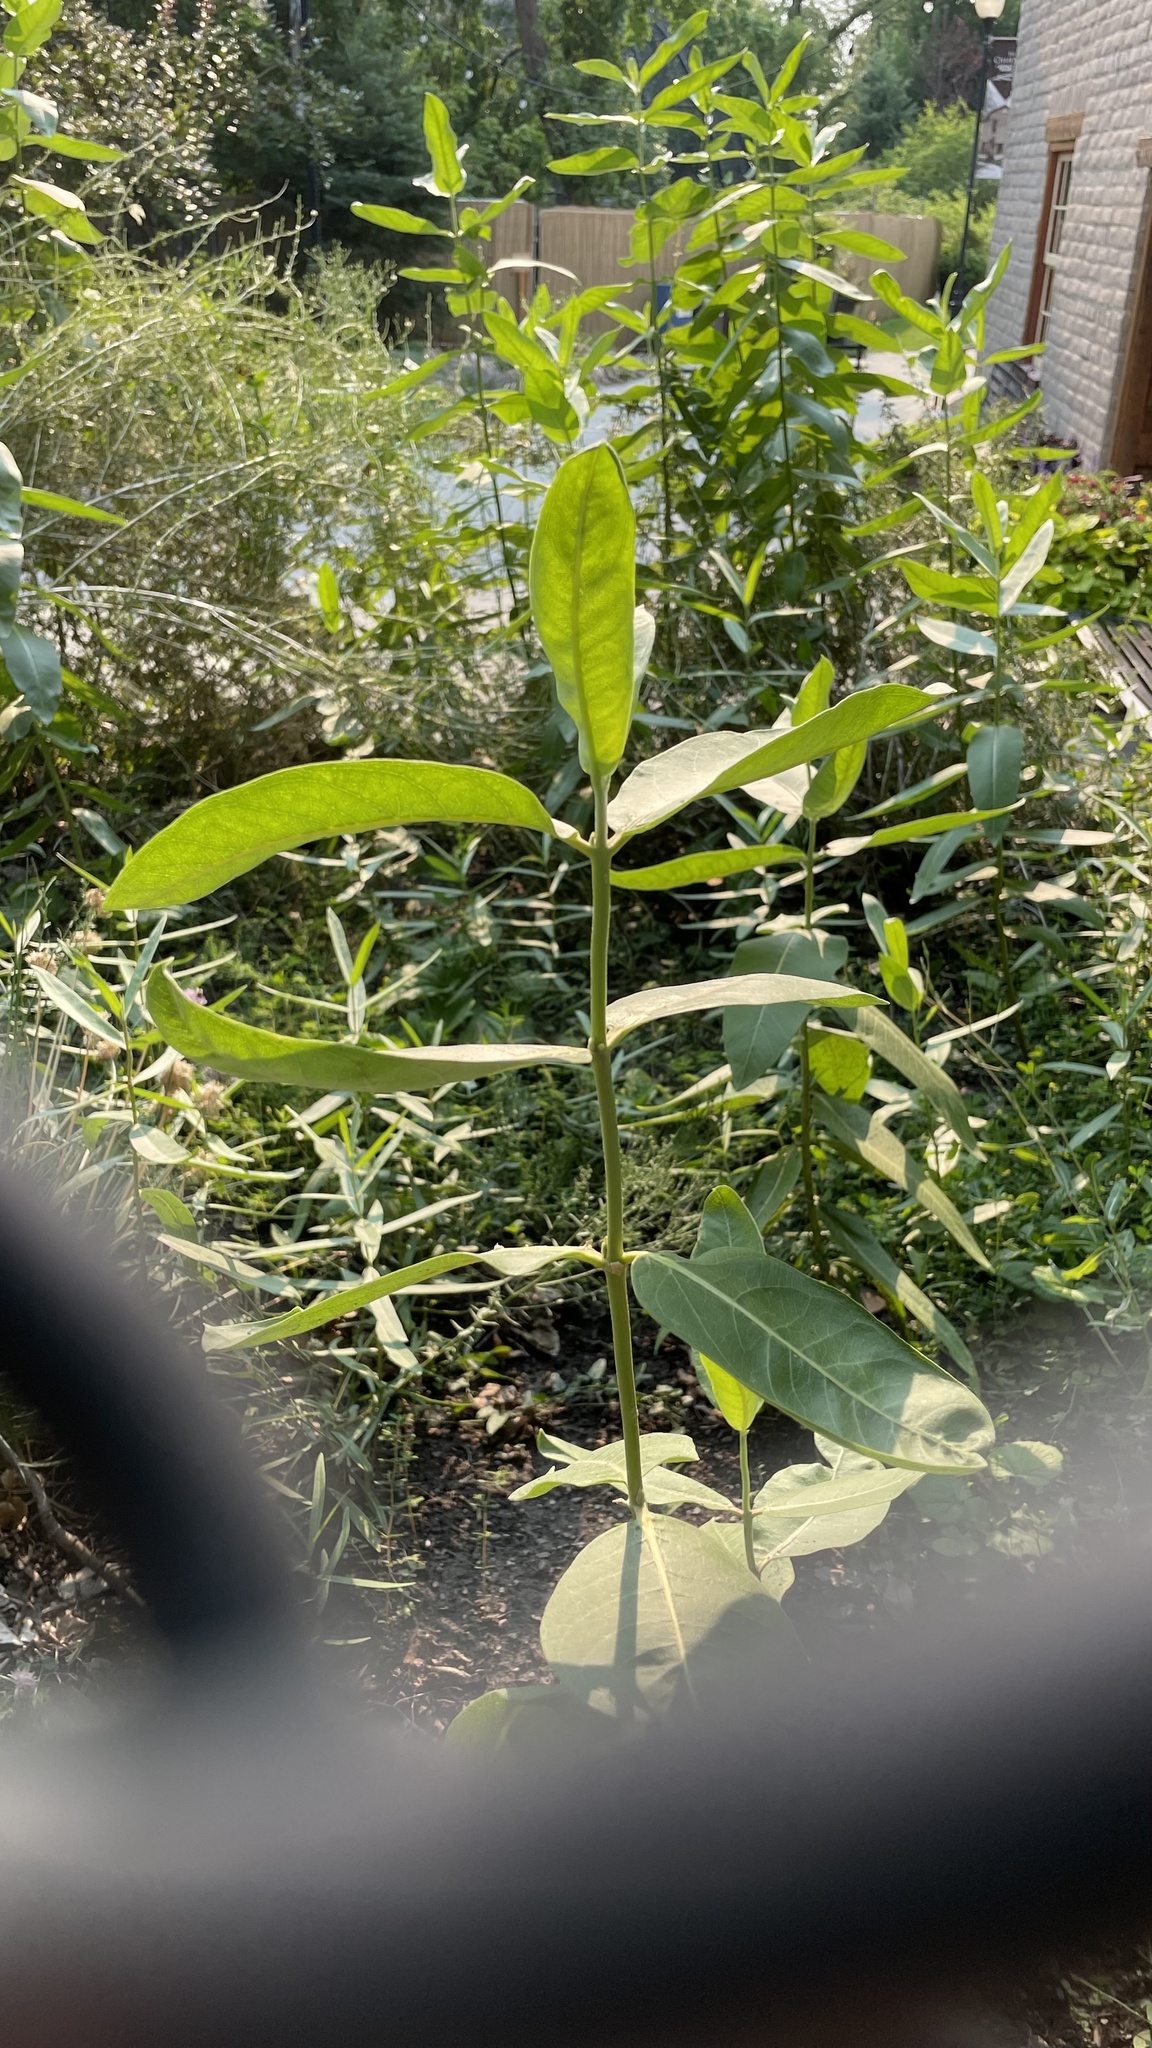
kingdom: Plantae
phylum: Tracheophyta
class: Magnoliopsida
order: Gentianales
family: Apocynaceae
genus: Asclepias
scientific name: Asclepias speciosa
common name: Showy milkweed
